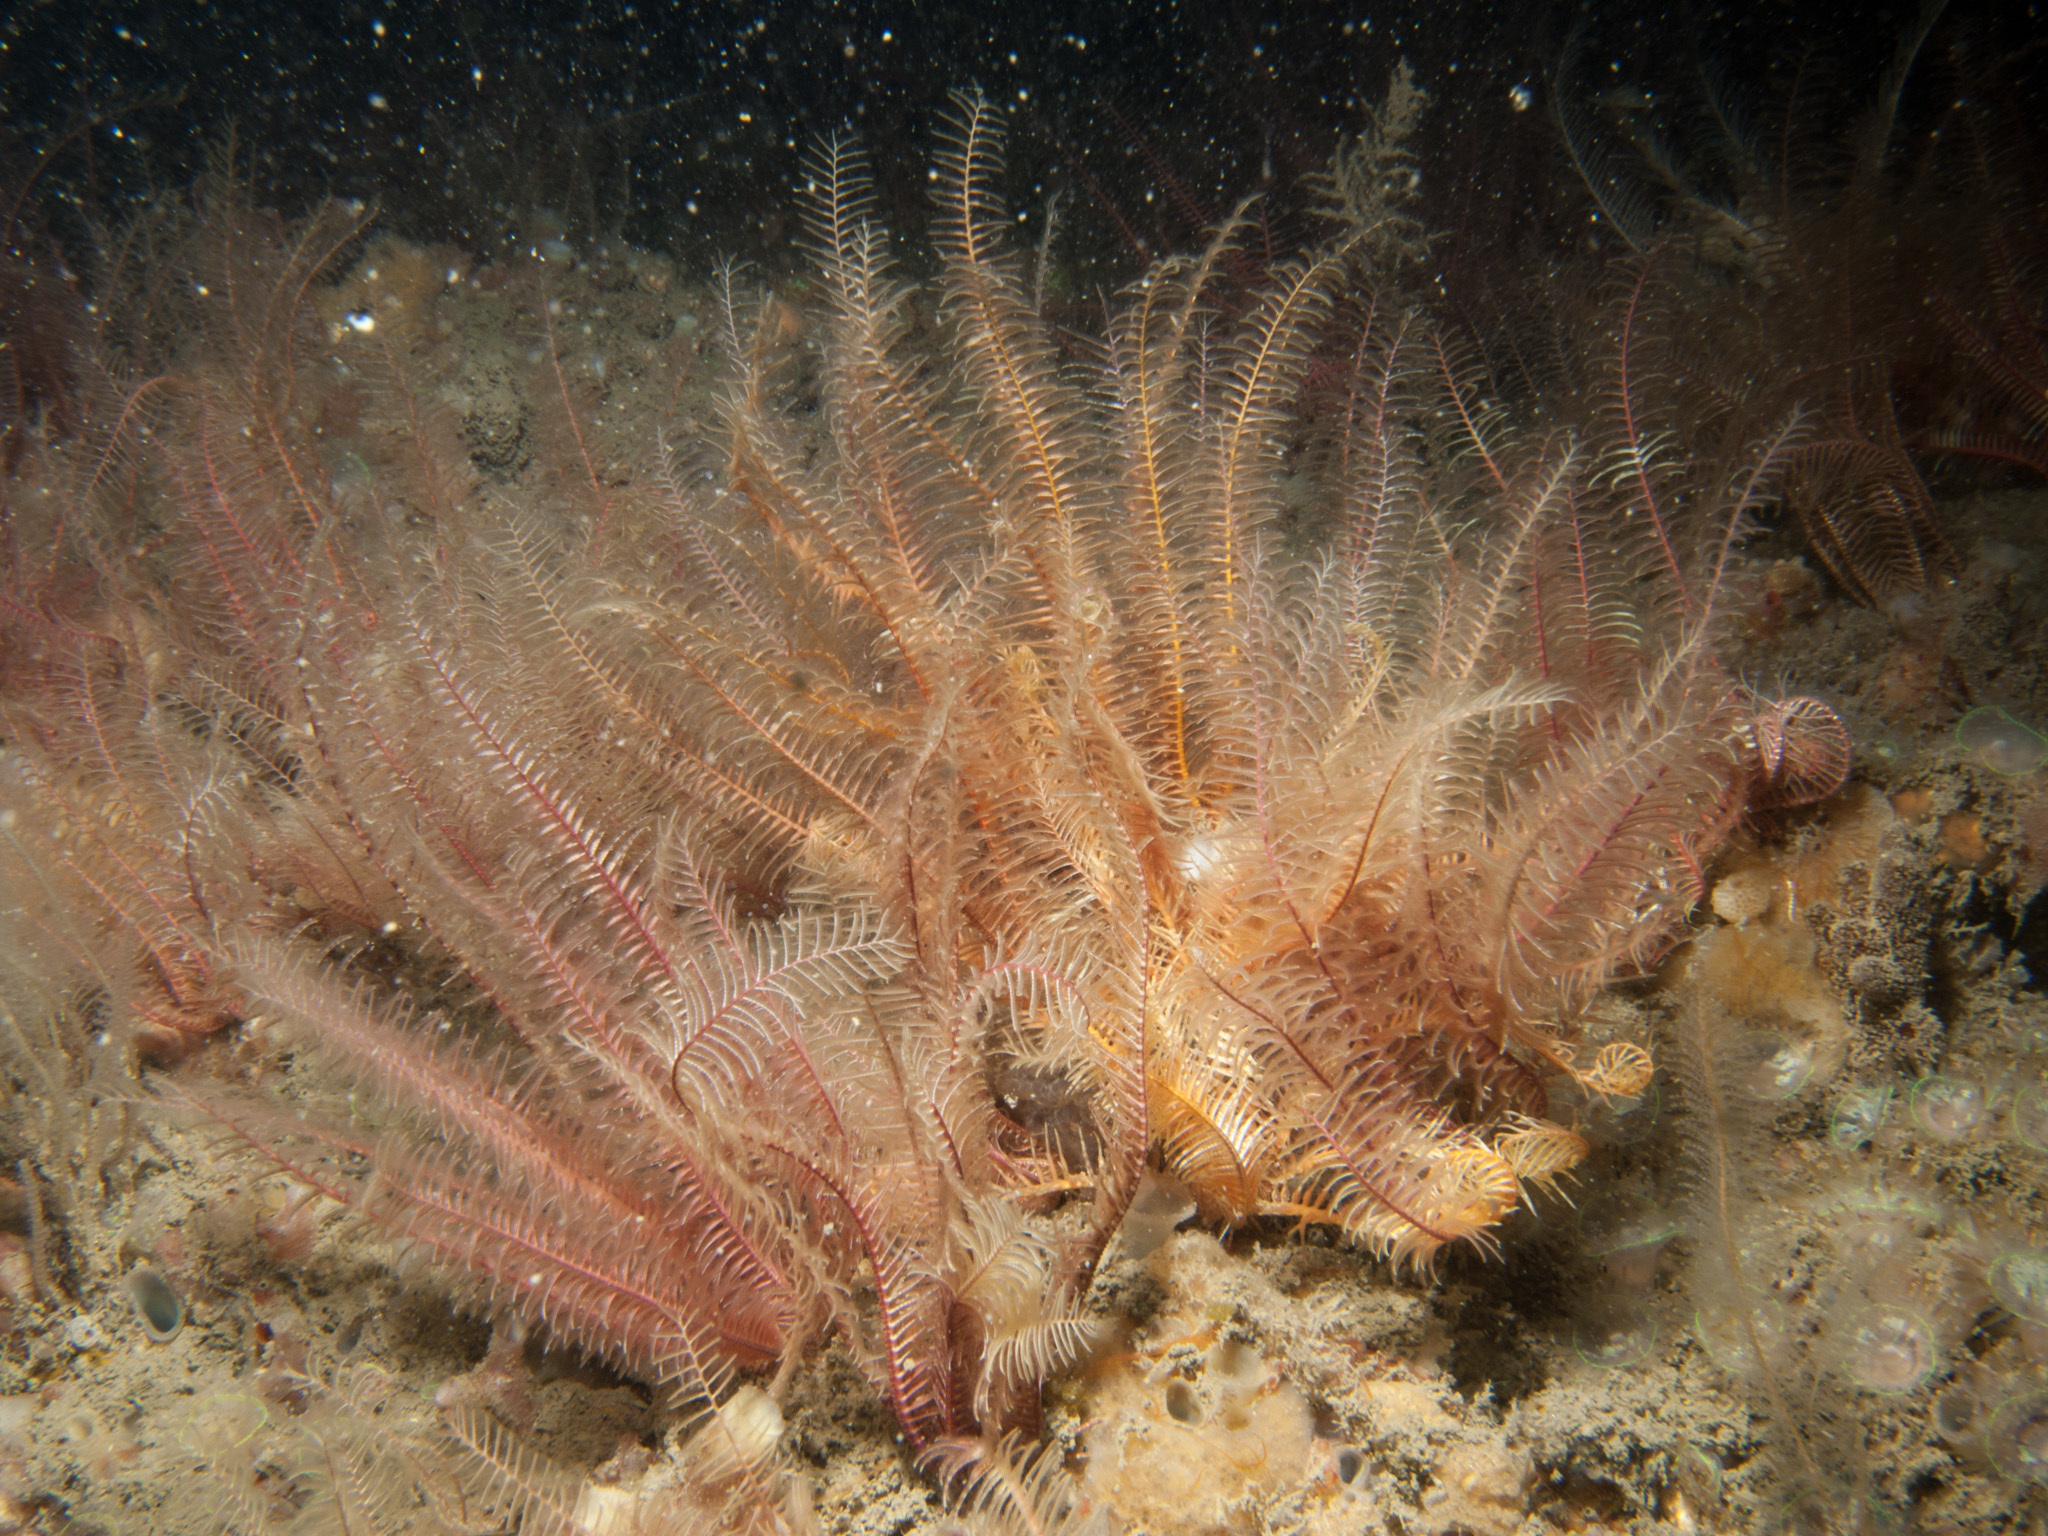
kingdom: Animalia
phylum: Echinodermata
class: Crinoidea
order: Comatulida
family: Antedonidae
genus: Antedon
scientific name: Antedon bifida
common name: Rosy feather-star
